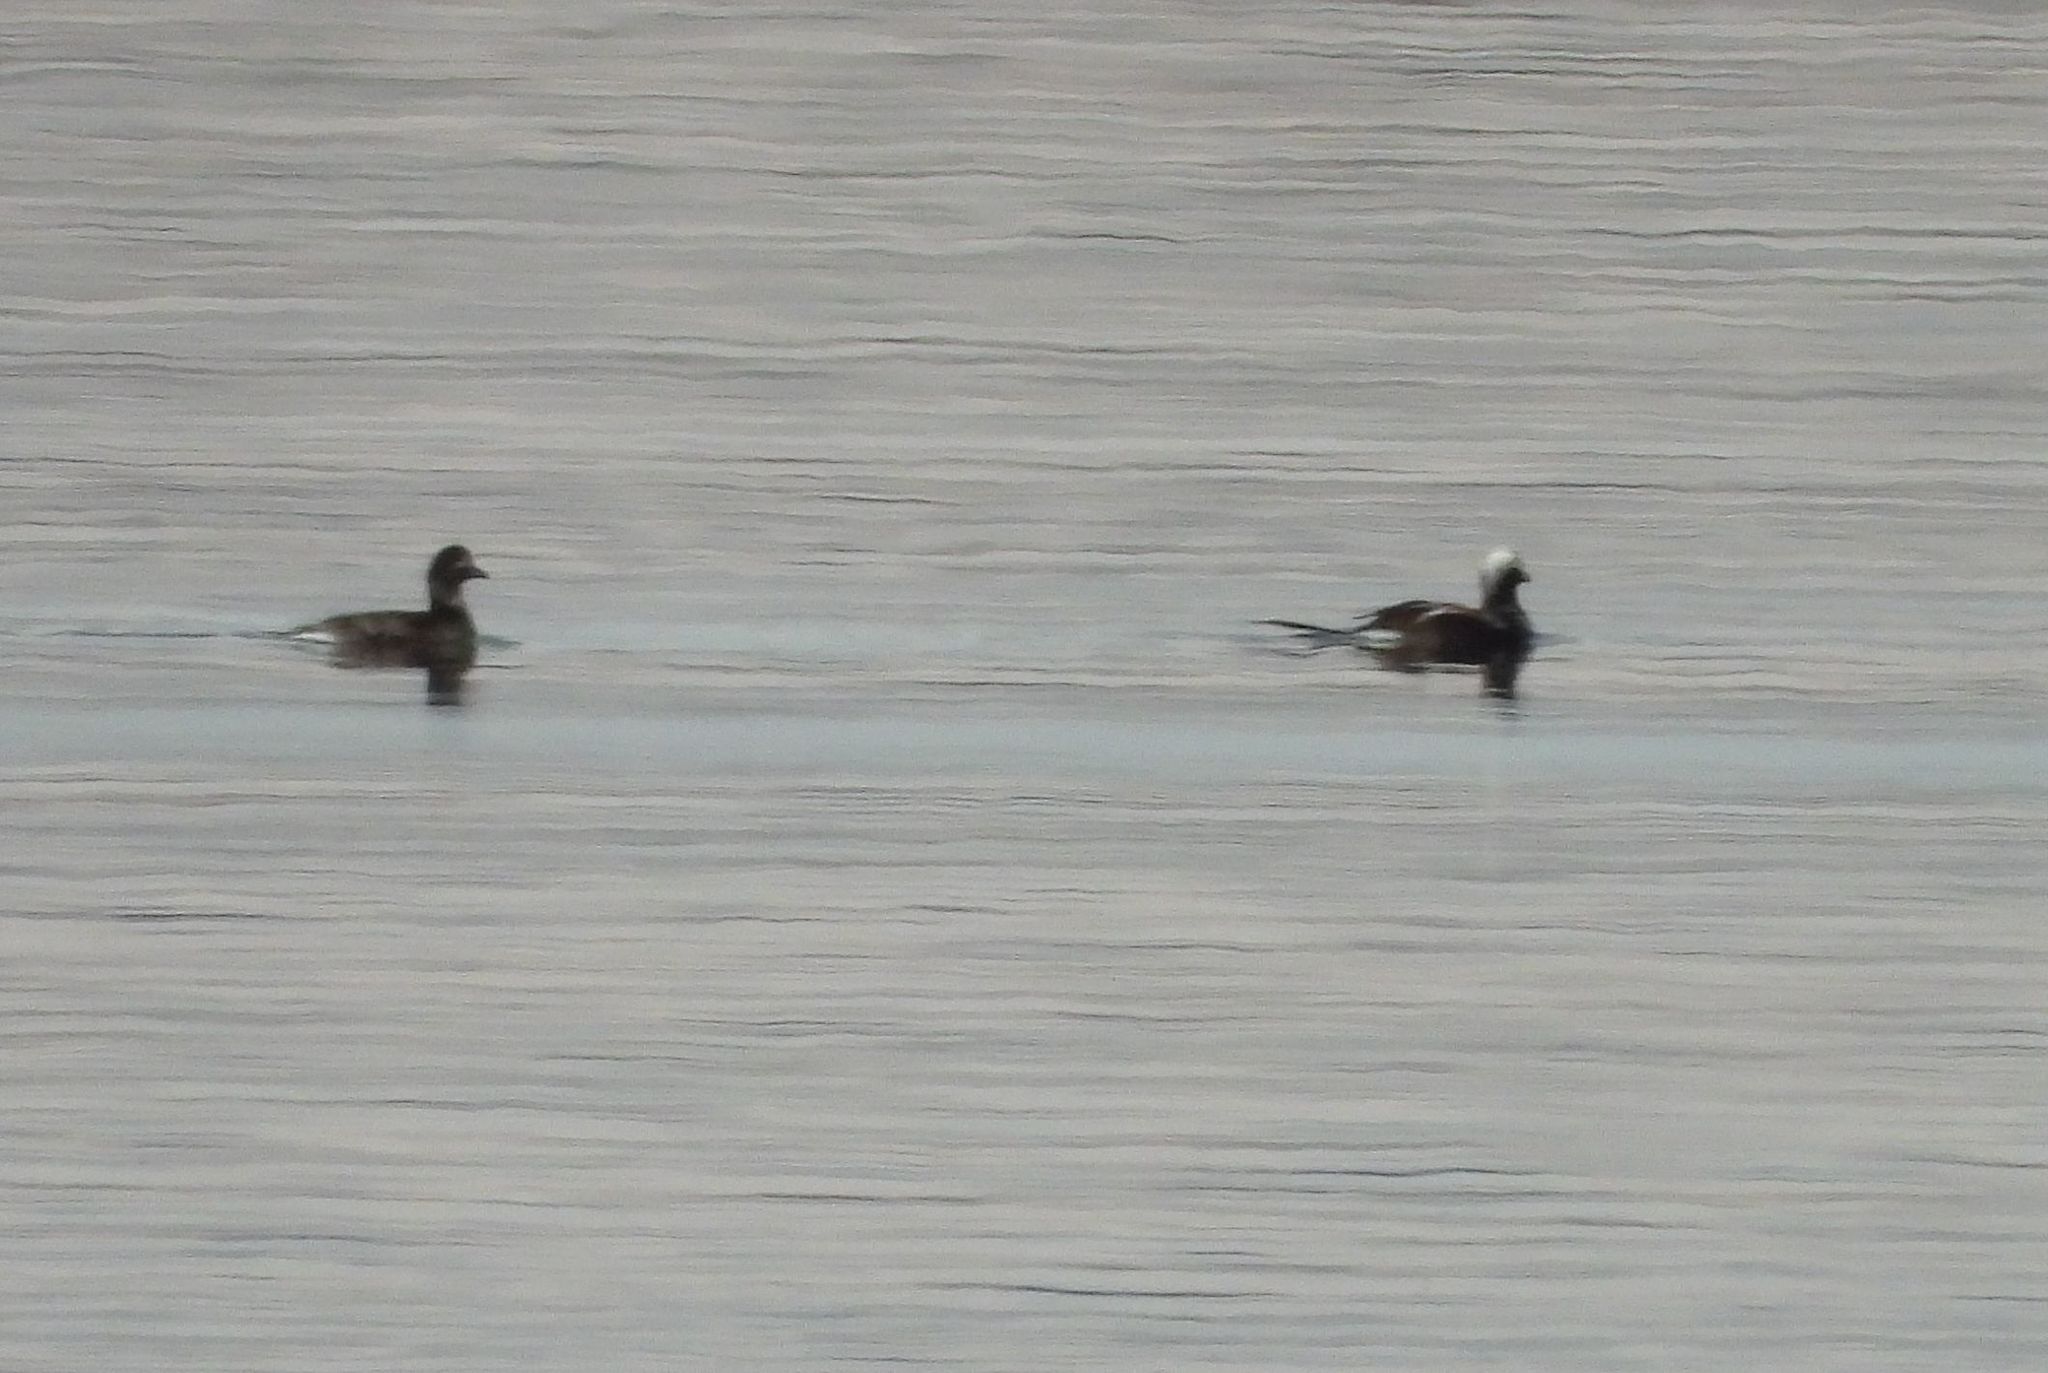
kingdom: Animalia
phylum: Chordata
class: Aves
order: Anseriformes
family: Anatidae
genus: Clangula
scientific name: Clangula hyemalis
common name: Long-tailed duck
